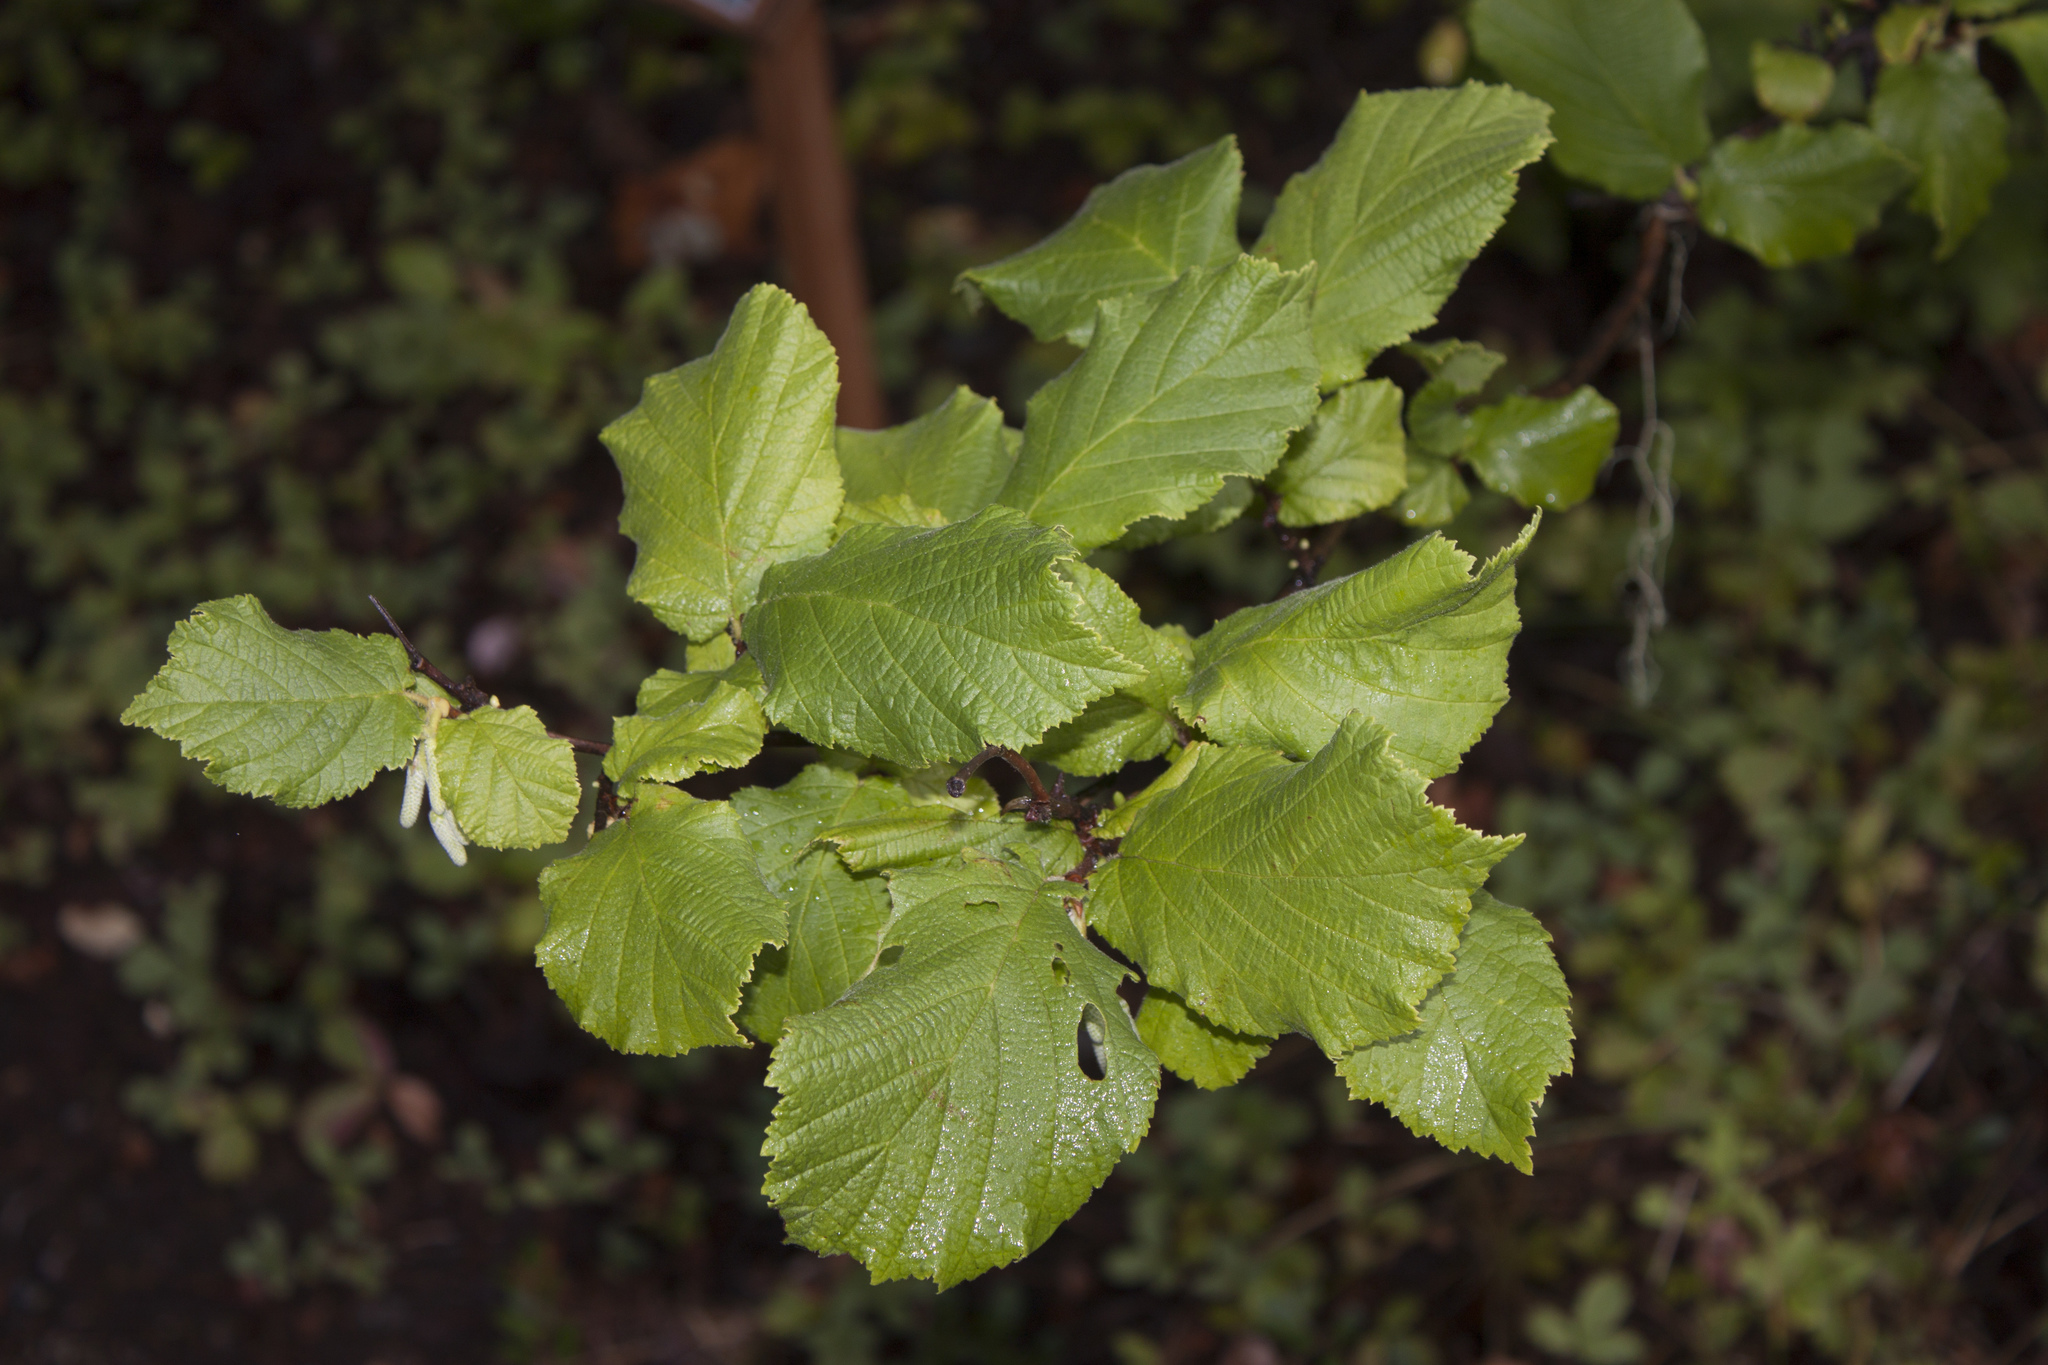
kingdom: Plantae
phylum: Tracheophyta
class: Magnoliopsida
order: Fagales
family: Betulaceae
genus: Corylus
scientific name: Corylus cornuta
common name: Beaked hazel
